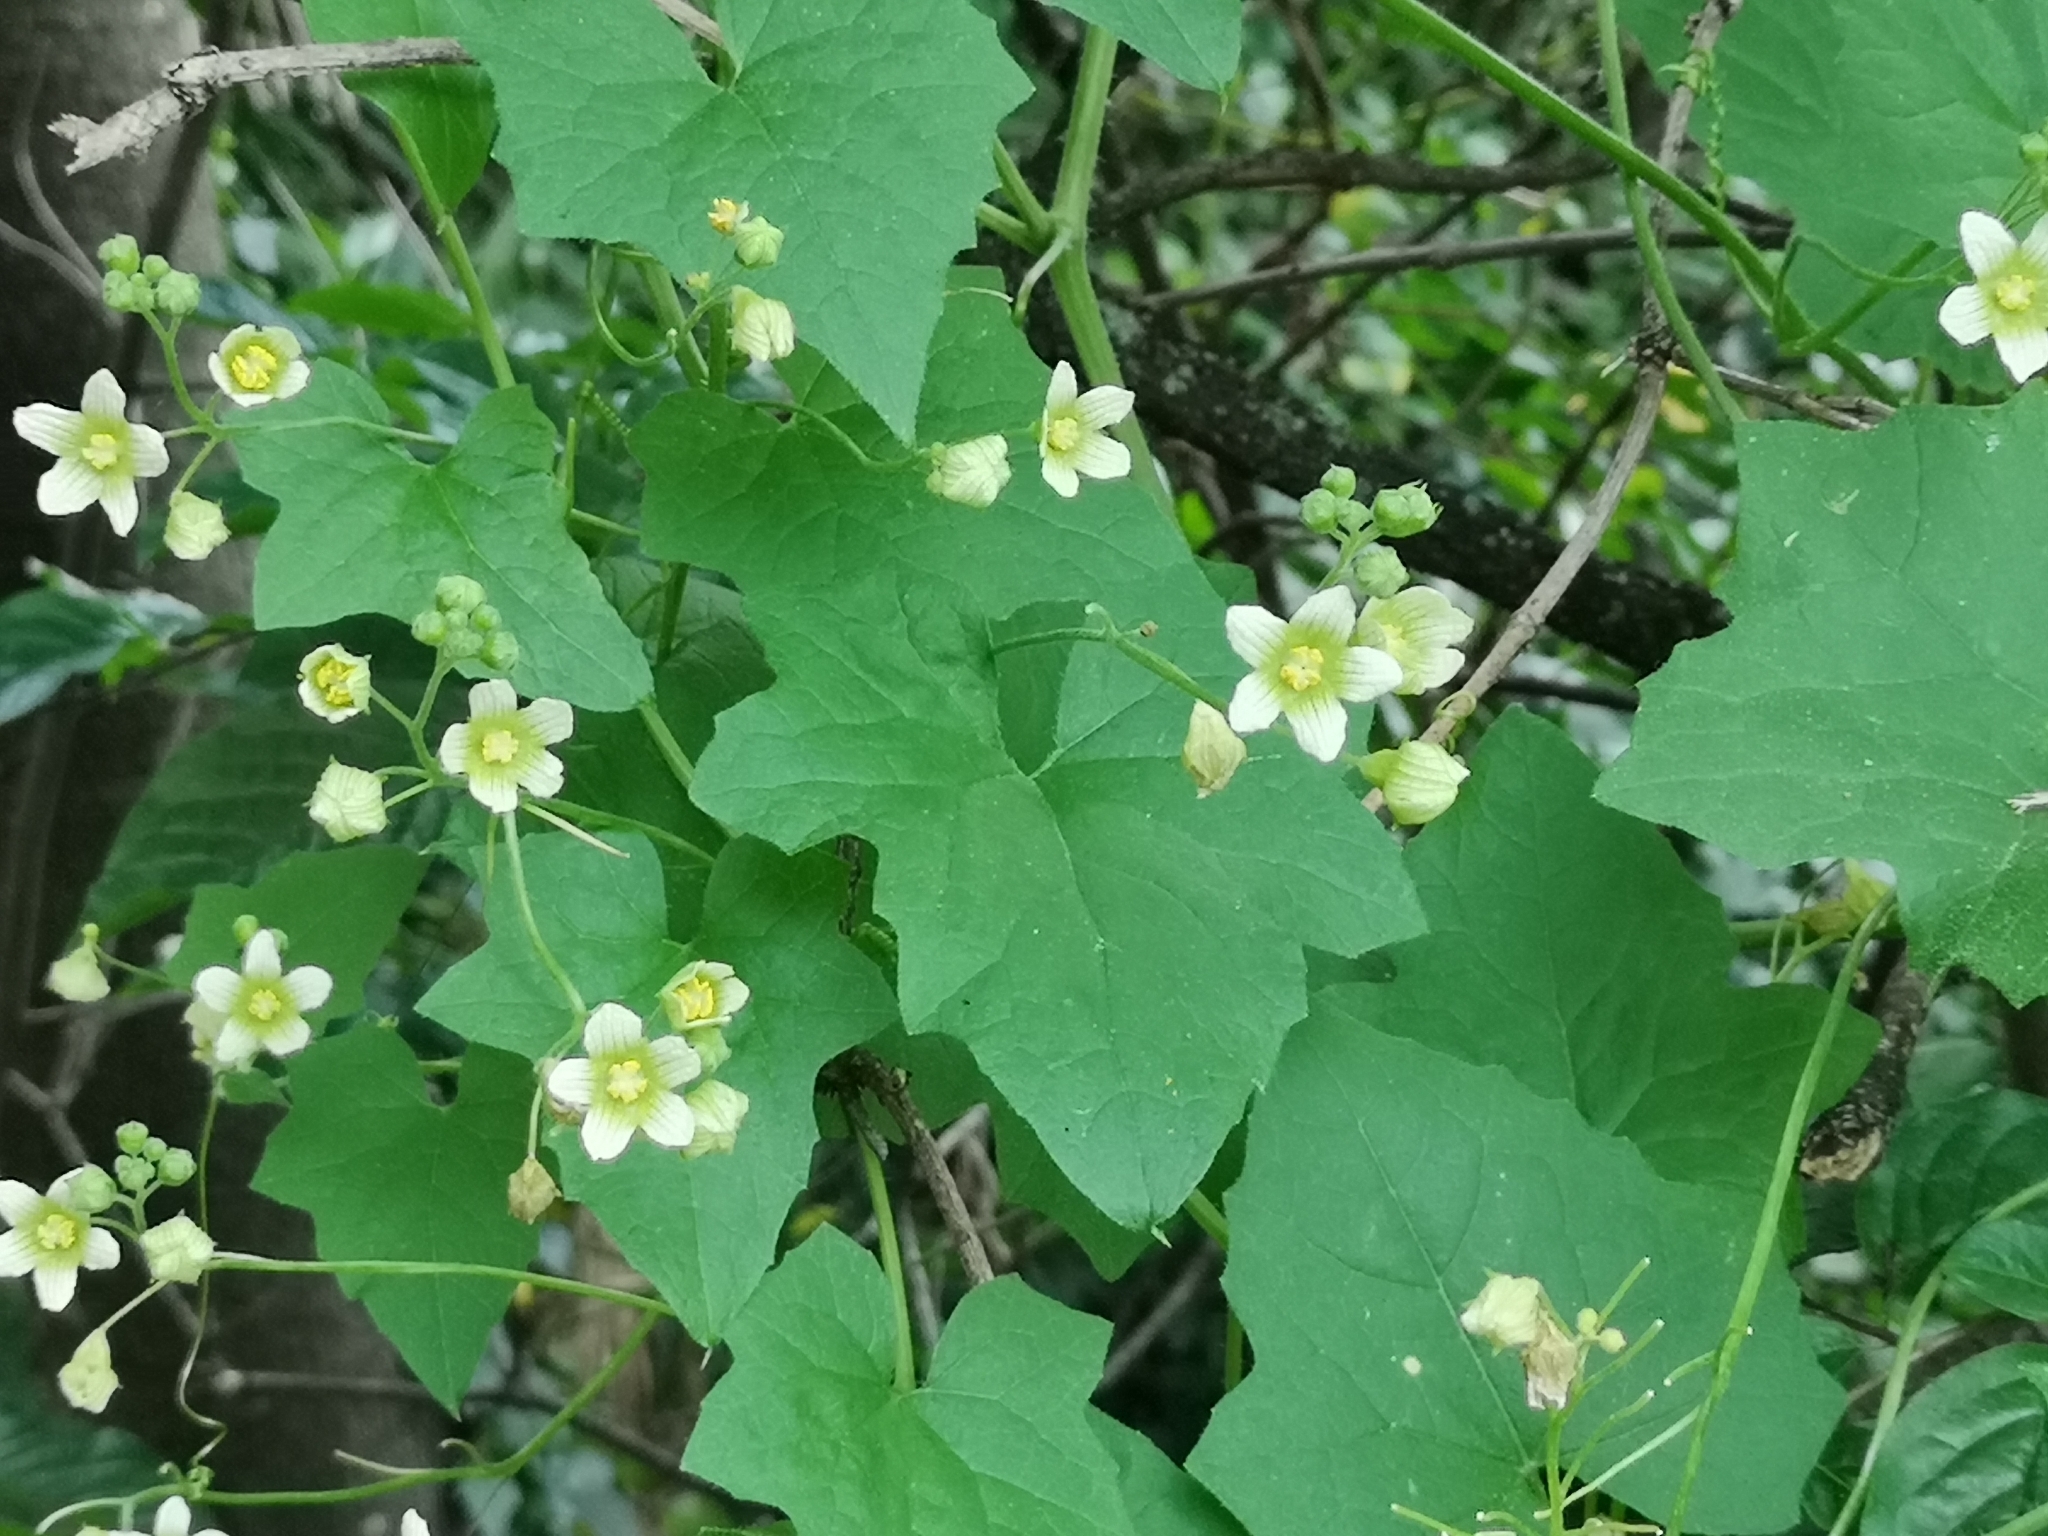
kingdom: Plantae
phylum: Tracheophyta
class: Magnoliopsida
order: Cucurbitales
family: Cucurbitaceae
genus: Bryonia
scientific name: Bryonia cretica
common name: Cretan bryony
